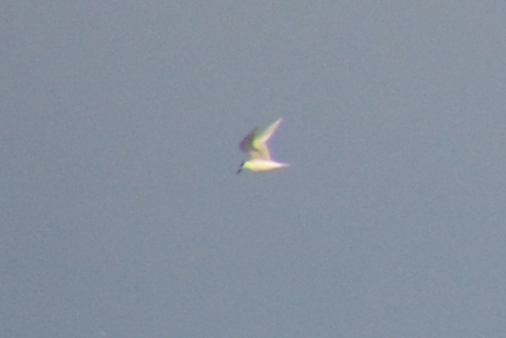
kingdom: Animalia
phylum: Chordata
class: Aves
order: Charadriiformes
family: Laridae
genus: Thalasseus
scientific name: Thalasseus sandvicensis
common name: Sandwich tern
